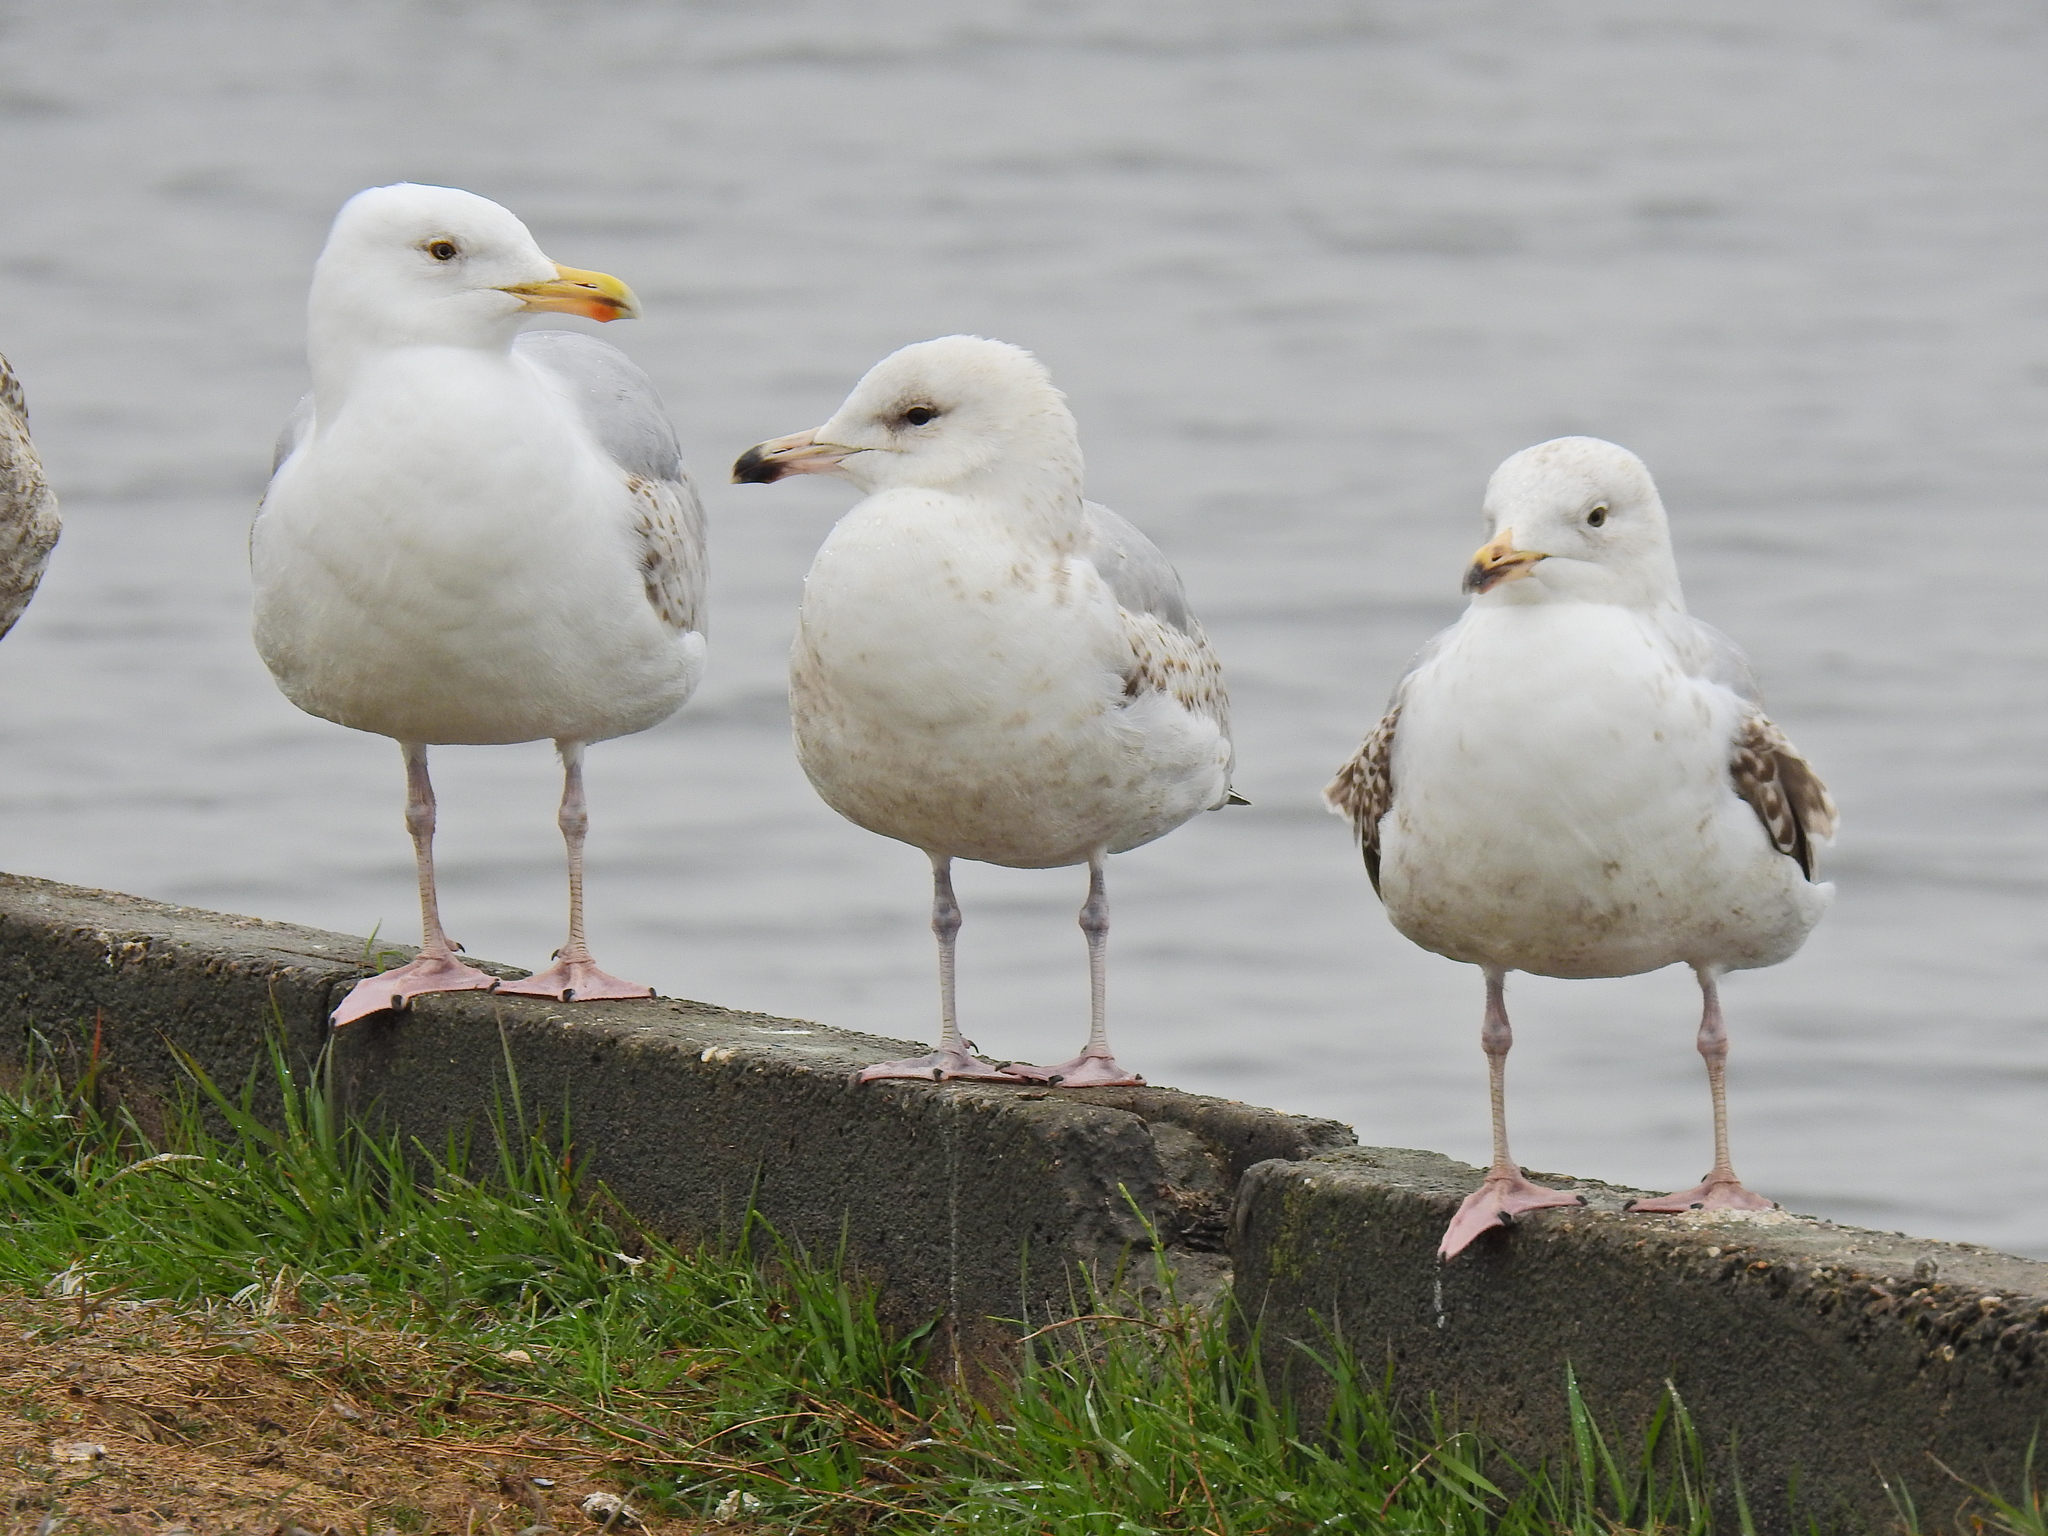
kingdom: Animalia
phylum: Chordata
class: Aves
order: Charadriiformes
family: Laridae
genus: Larus
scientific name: Larus argentatus
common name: Herring gull
